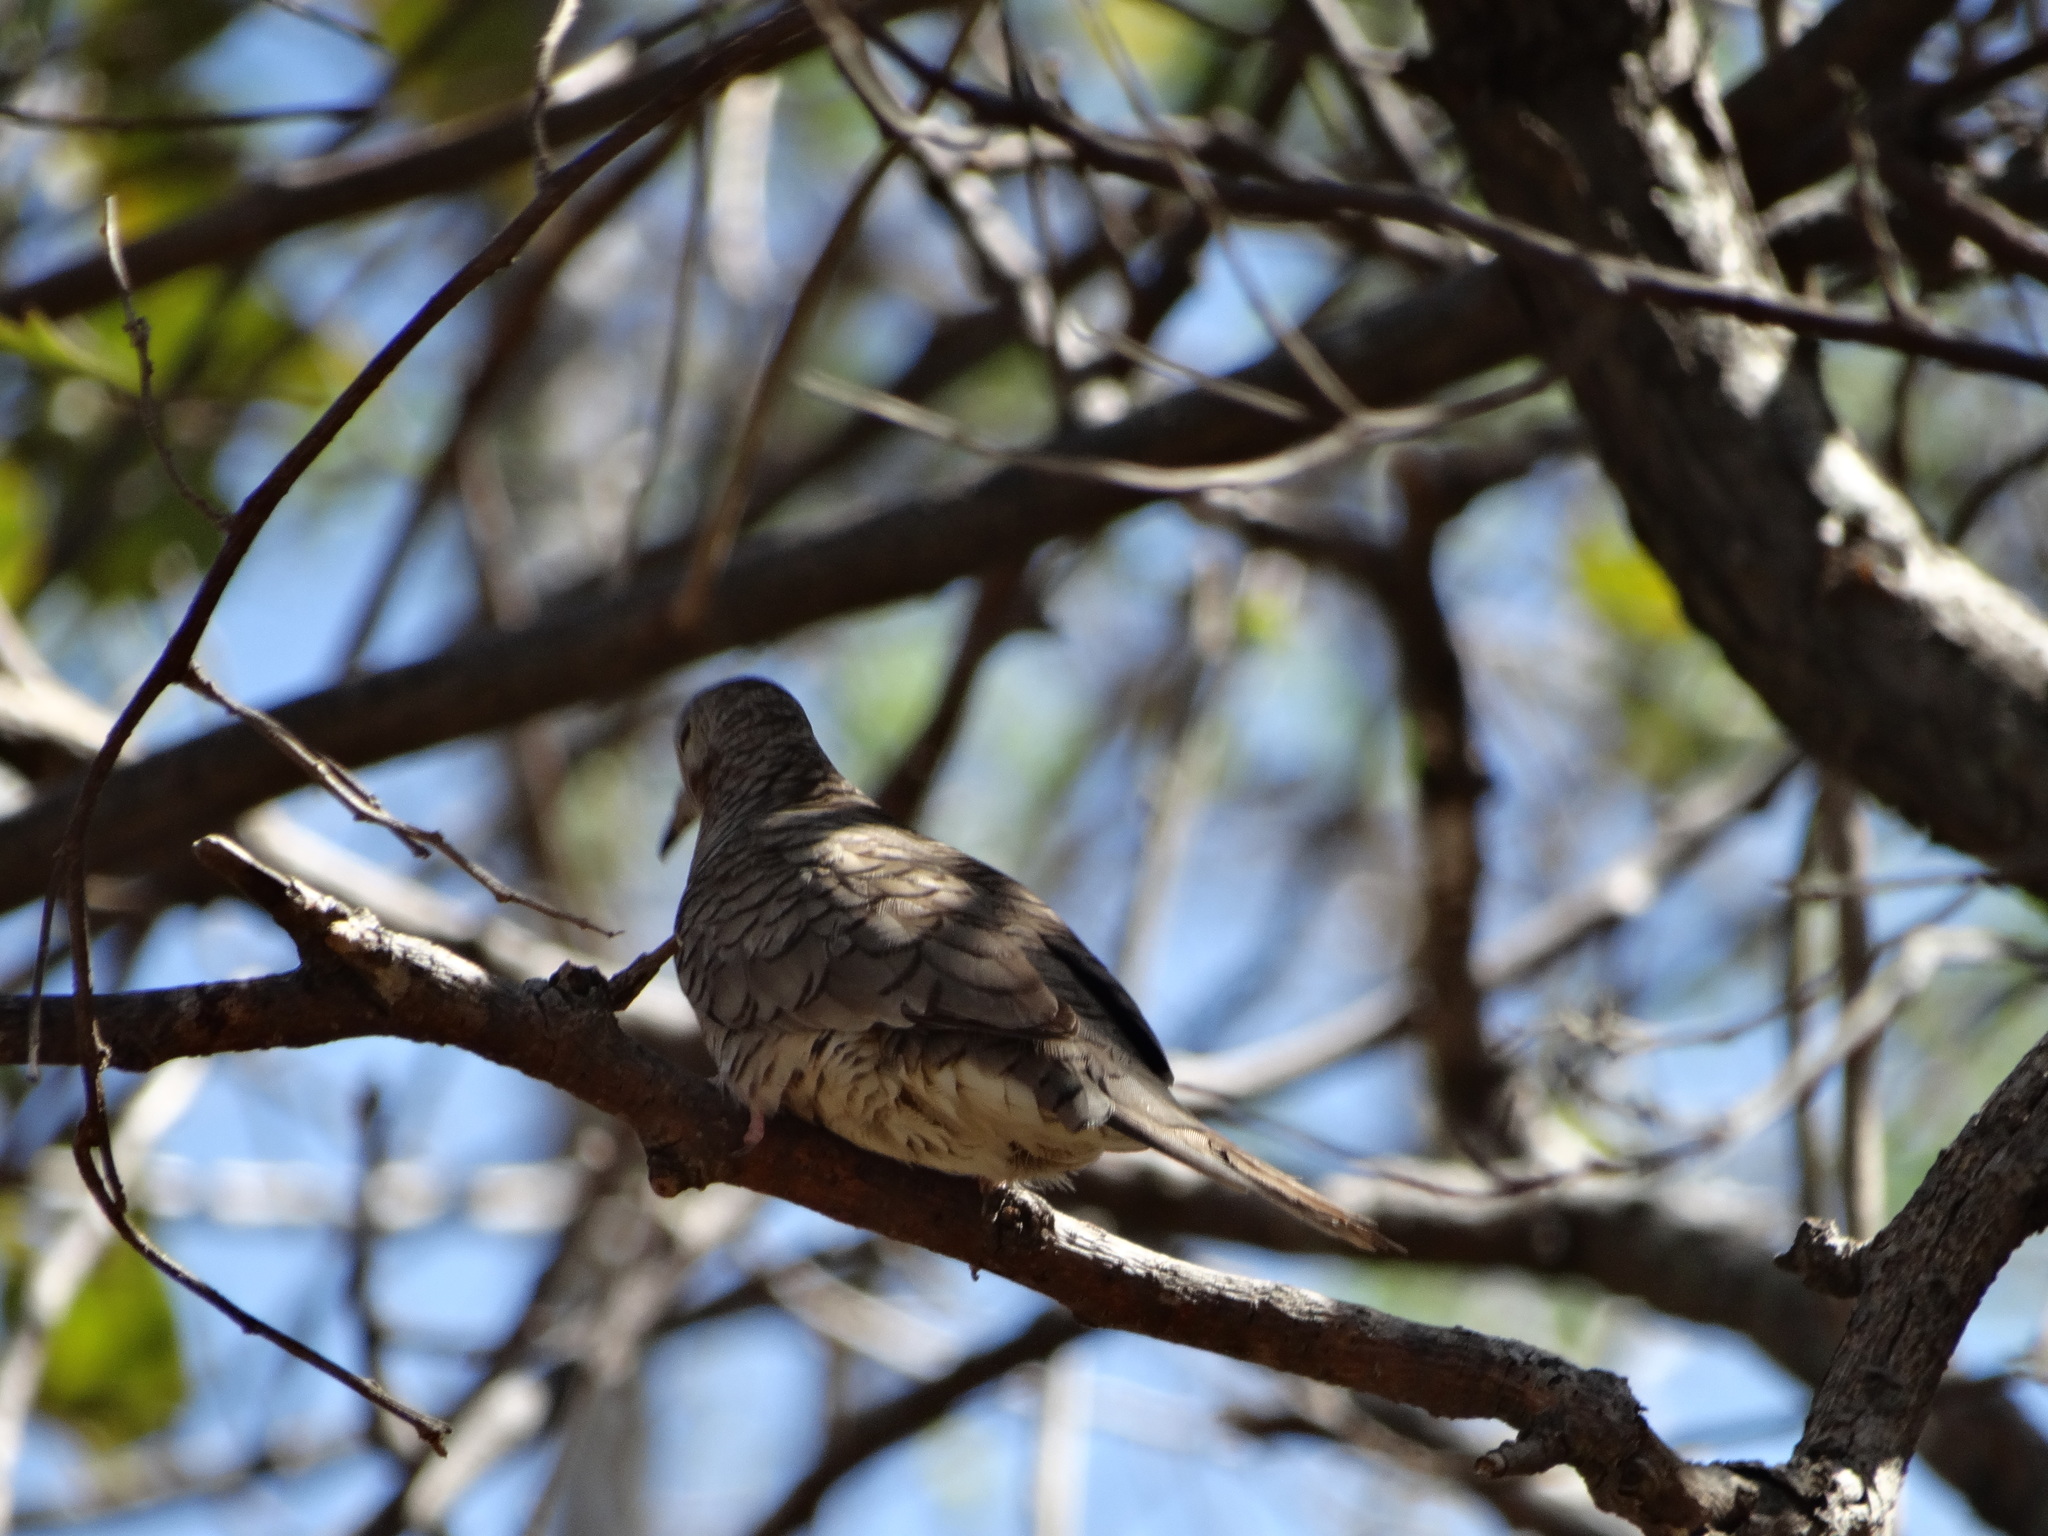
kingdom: Animalia
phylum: Chordata
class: Aves
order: Columbiformes
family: Columbidae
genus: Columbina
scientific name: Columbina inca
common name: Inca dove
